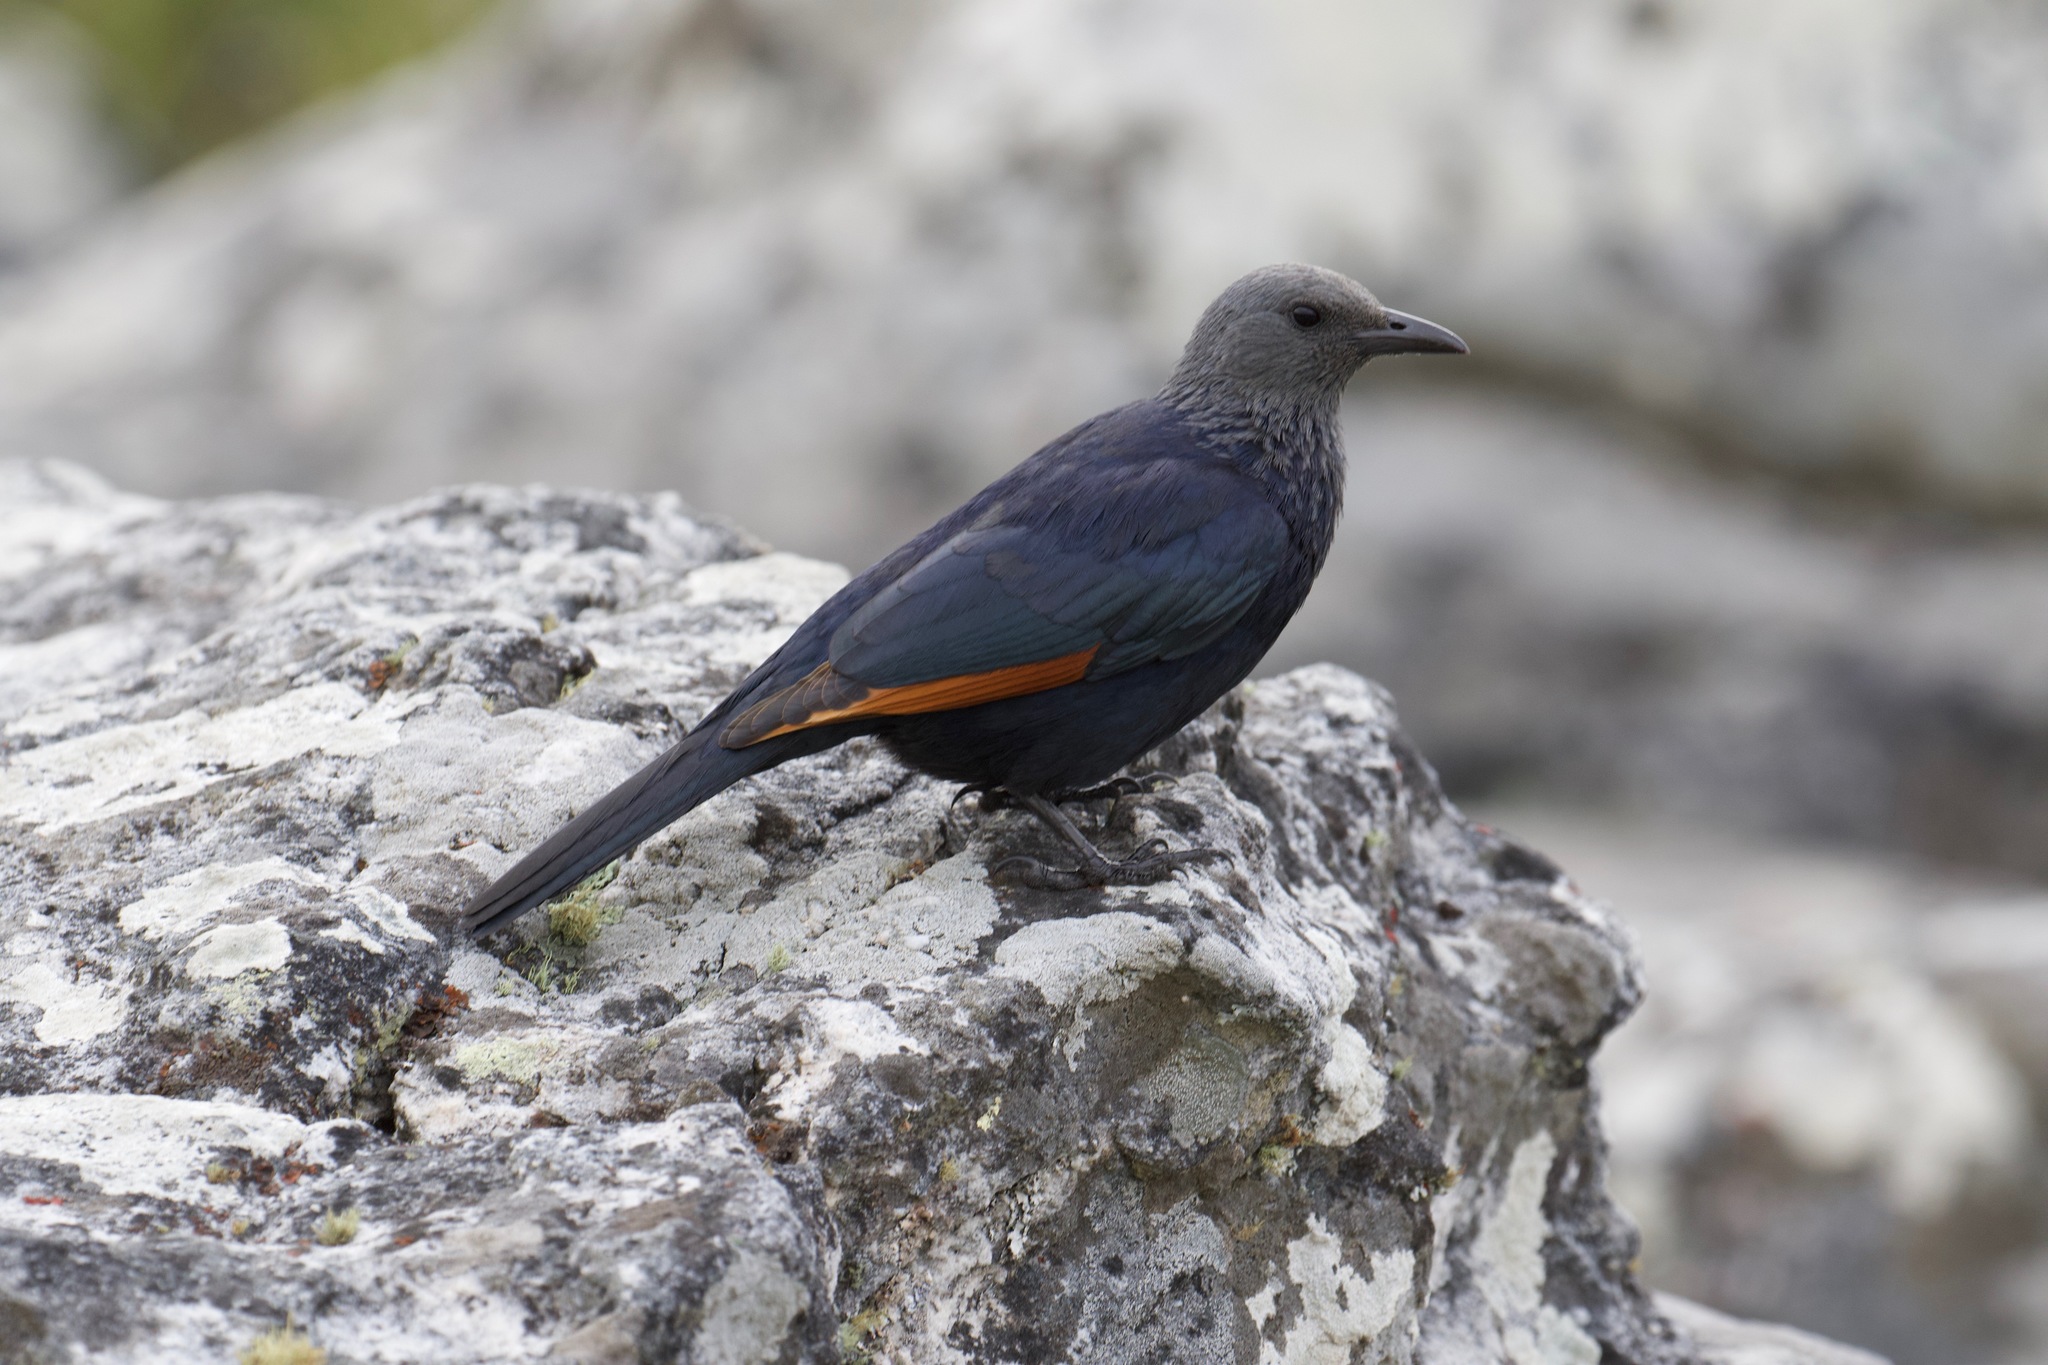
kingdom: Animalia
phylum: Chordata
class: Aves
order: Passeriformes
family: Sturnidae
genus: Onychognathus
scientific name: Onychognathus morio
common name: Red-winged starling
